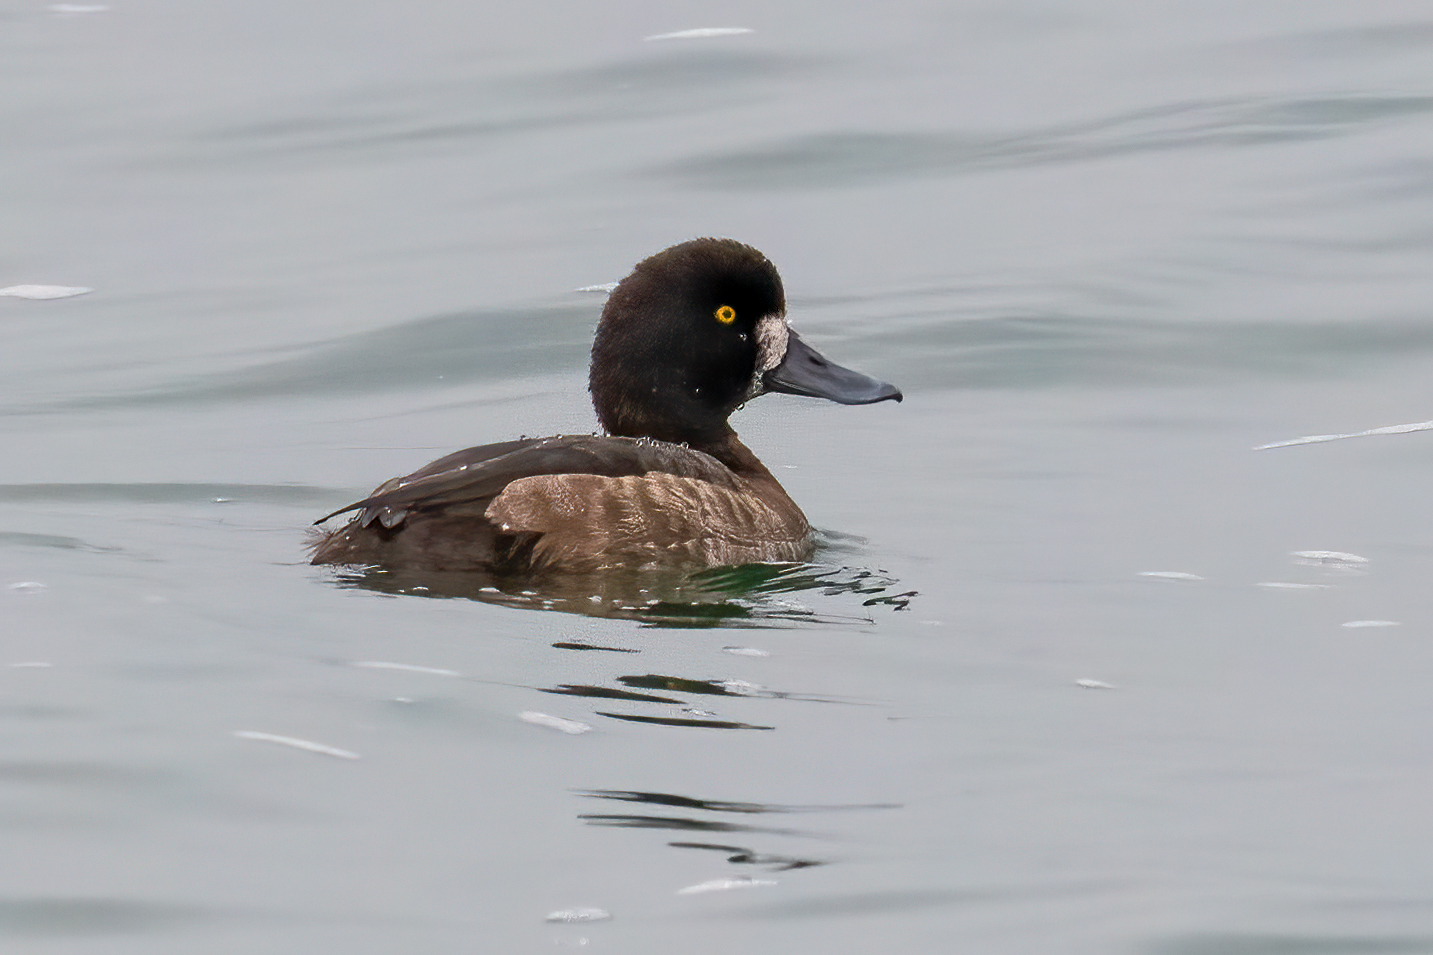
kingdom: Animalia
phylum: Chordata
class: Aves
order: Anseriformes
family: Anatidae
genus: Aythya
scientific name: Aythya marila
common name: Greater scaup
